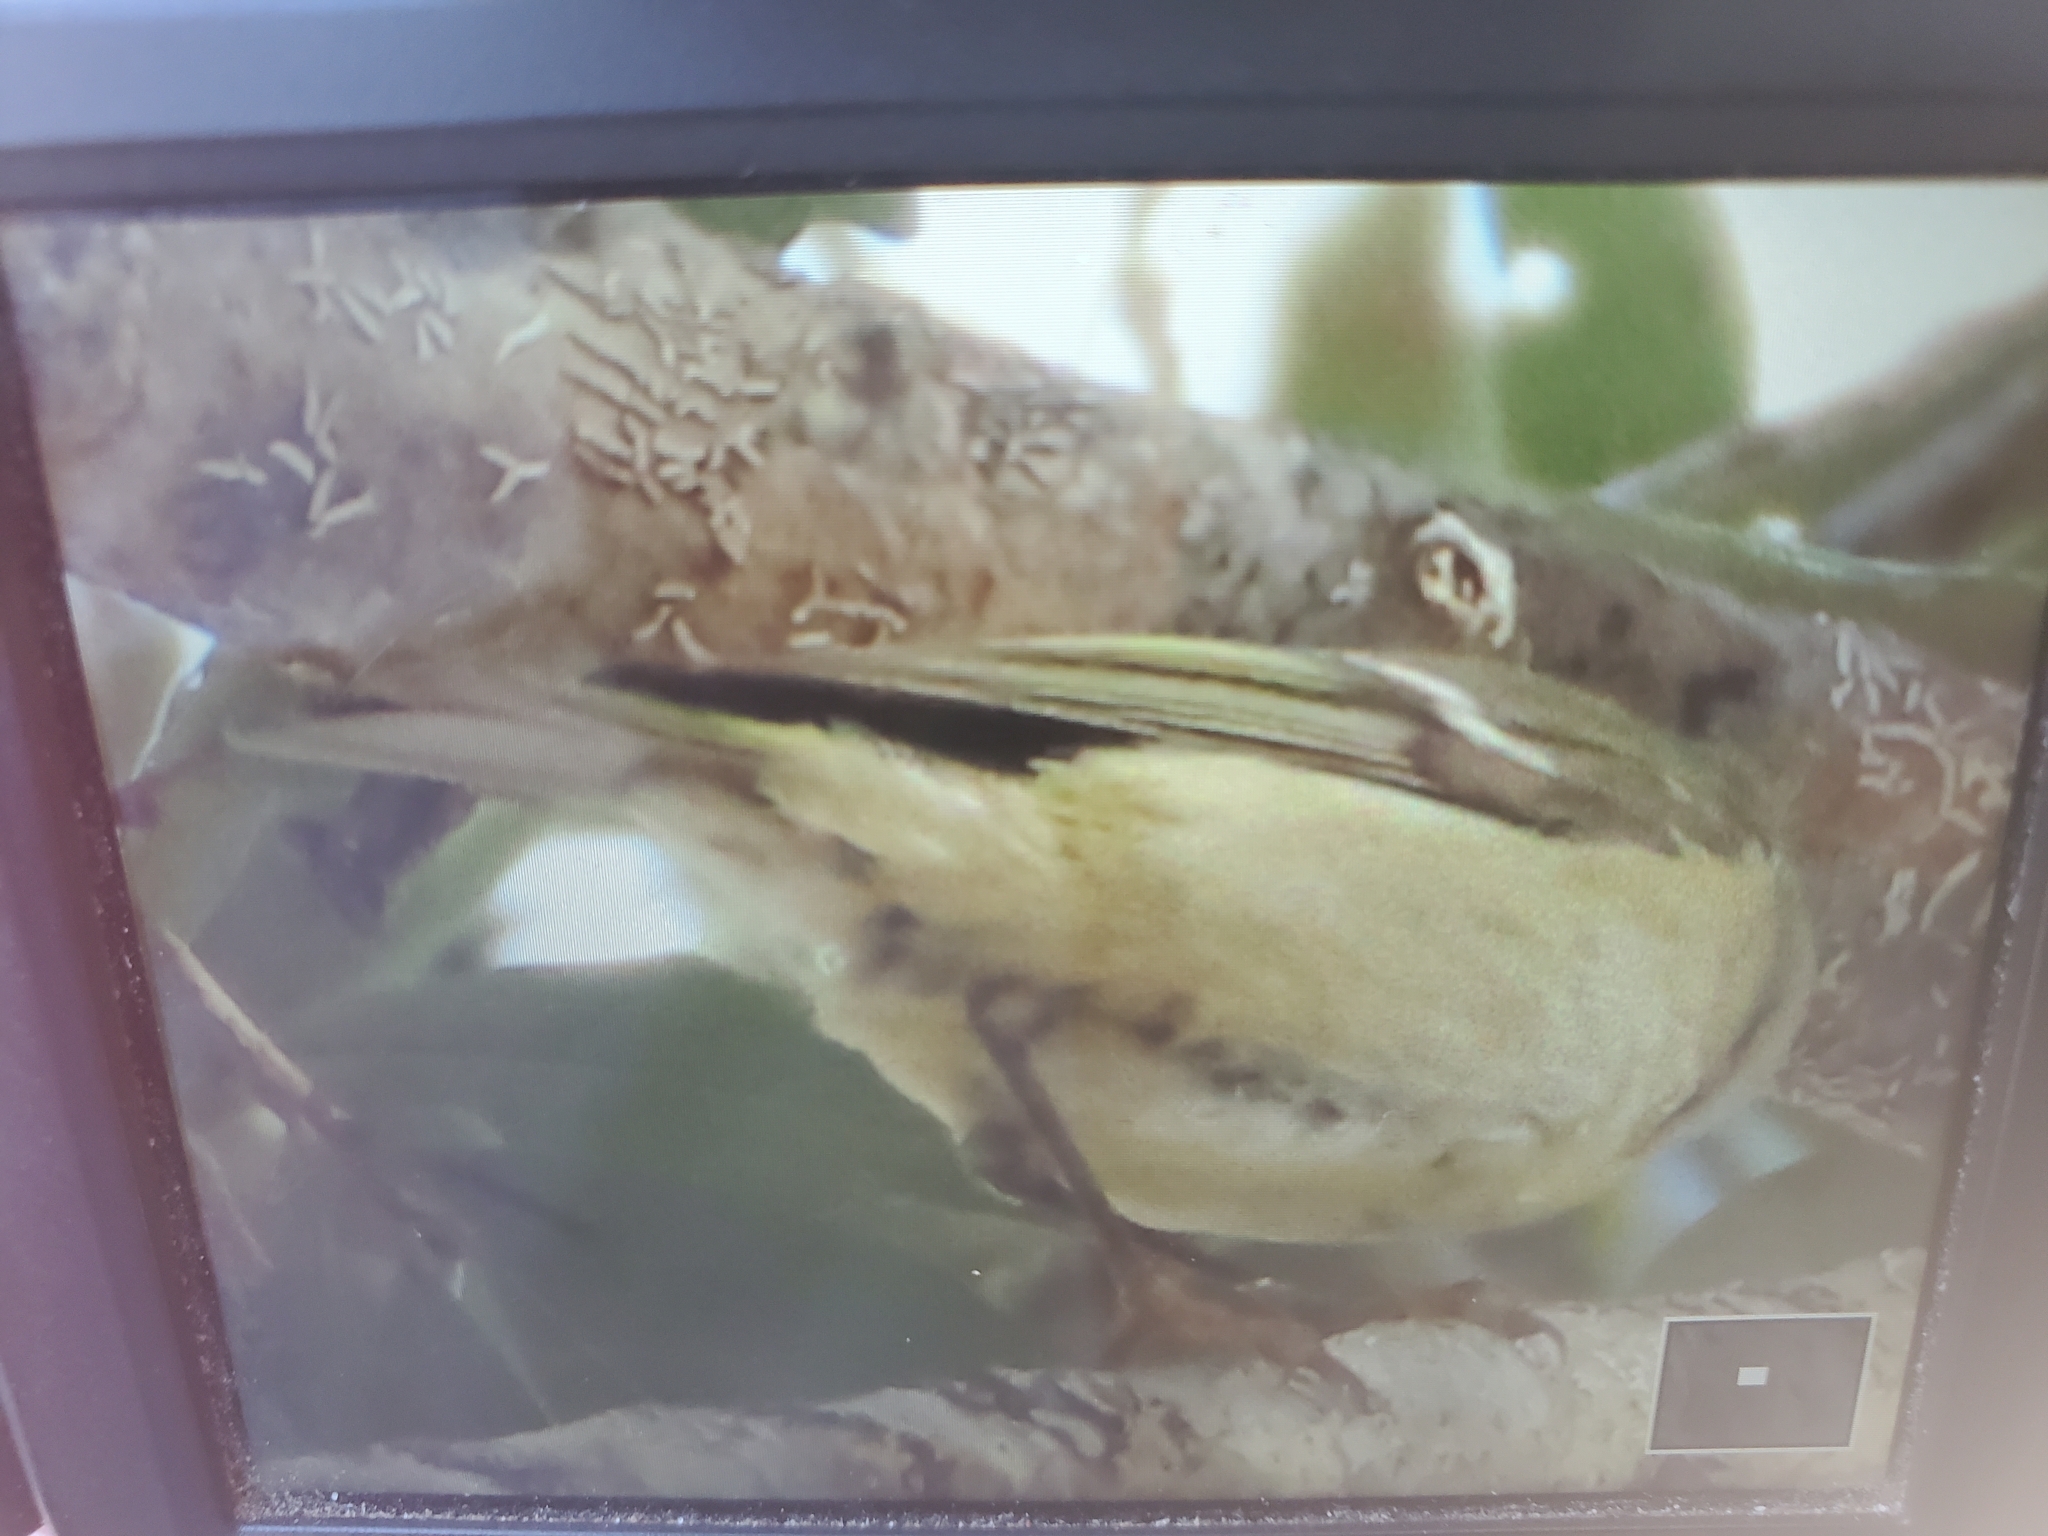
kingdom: Animalia
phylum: Chordata
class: Aves
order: Passeriformes
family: Regulidae
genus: Regulus
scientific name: Regulus calendula
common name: Ruby-crowned kinglet
